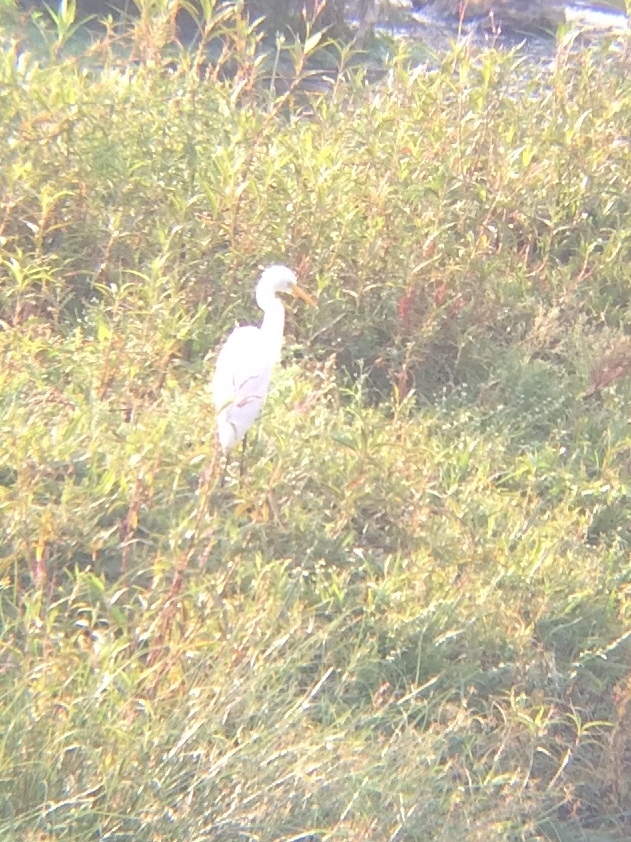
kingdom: Animalia
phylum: Chordata
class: Aves
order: Pelecaniformes
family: Ardeidae
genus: Egretta
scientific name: Egretta intermedia
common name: Intermediate egret
